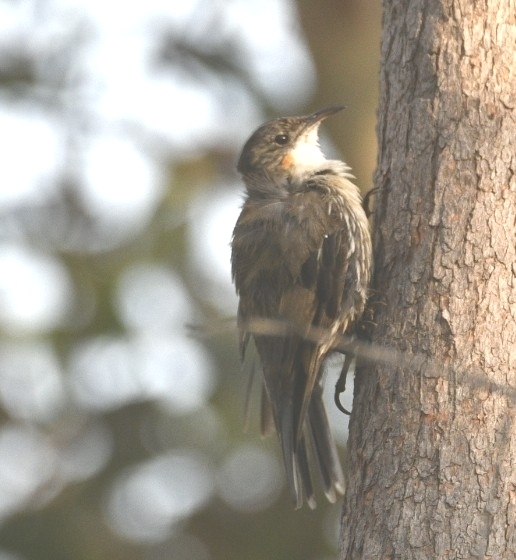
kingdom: Animalia
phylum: Chordata
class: Aves
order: Passeriformes
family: Climacteridae
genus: Cormobates
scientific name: Cormobates leucophaea
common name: White-throated treecreeper
